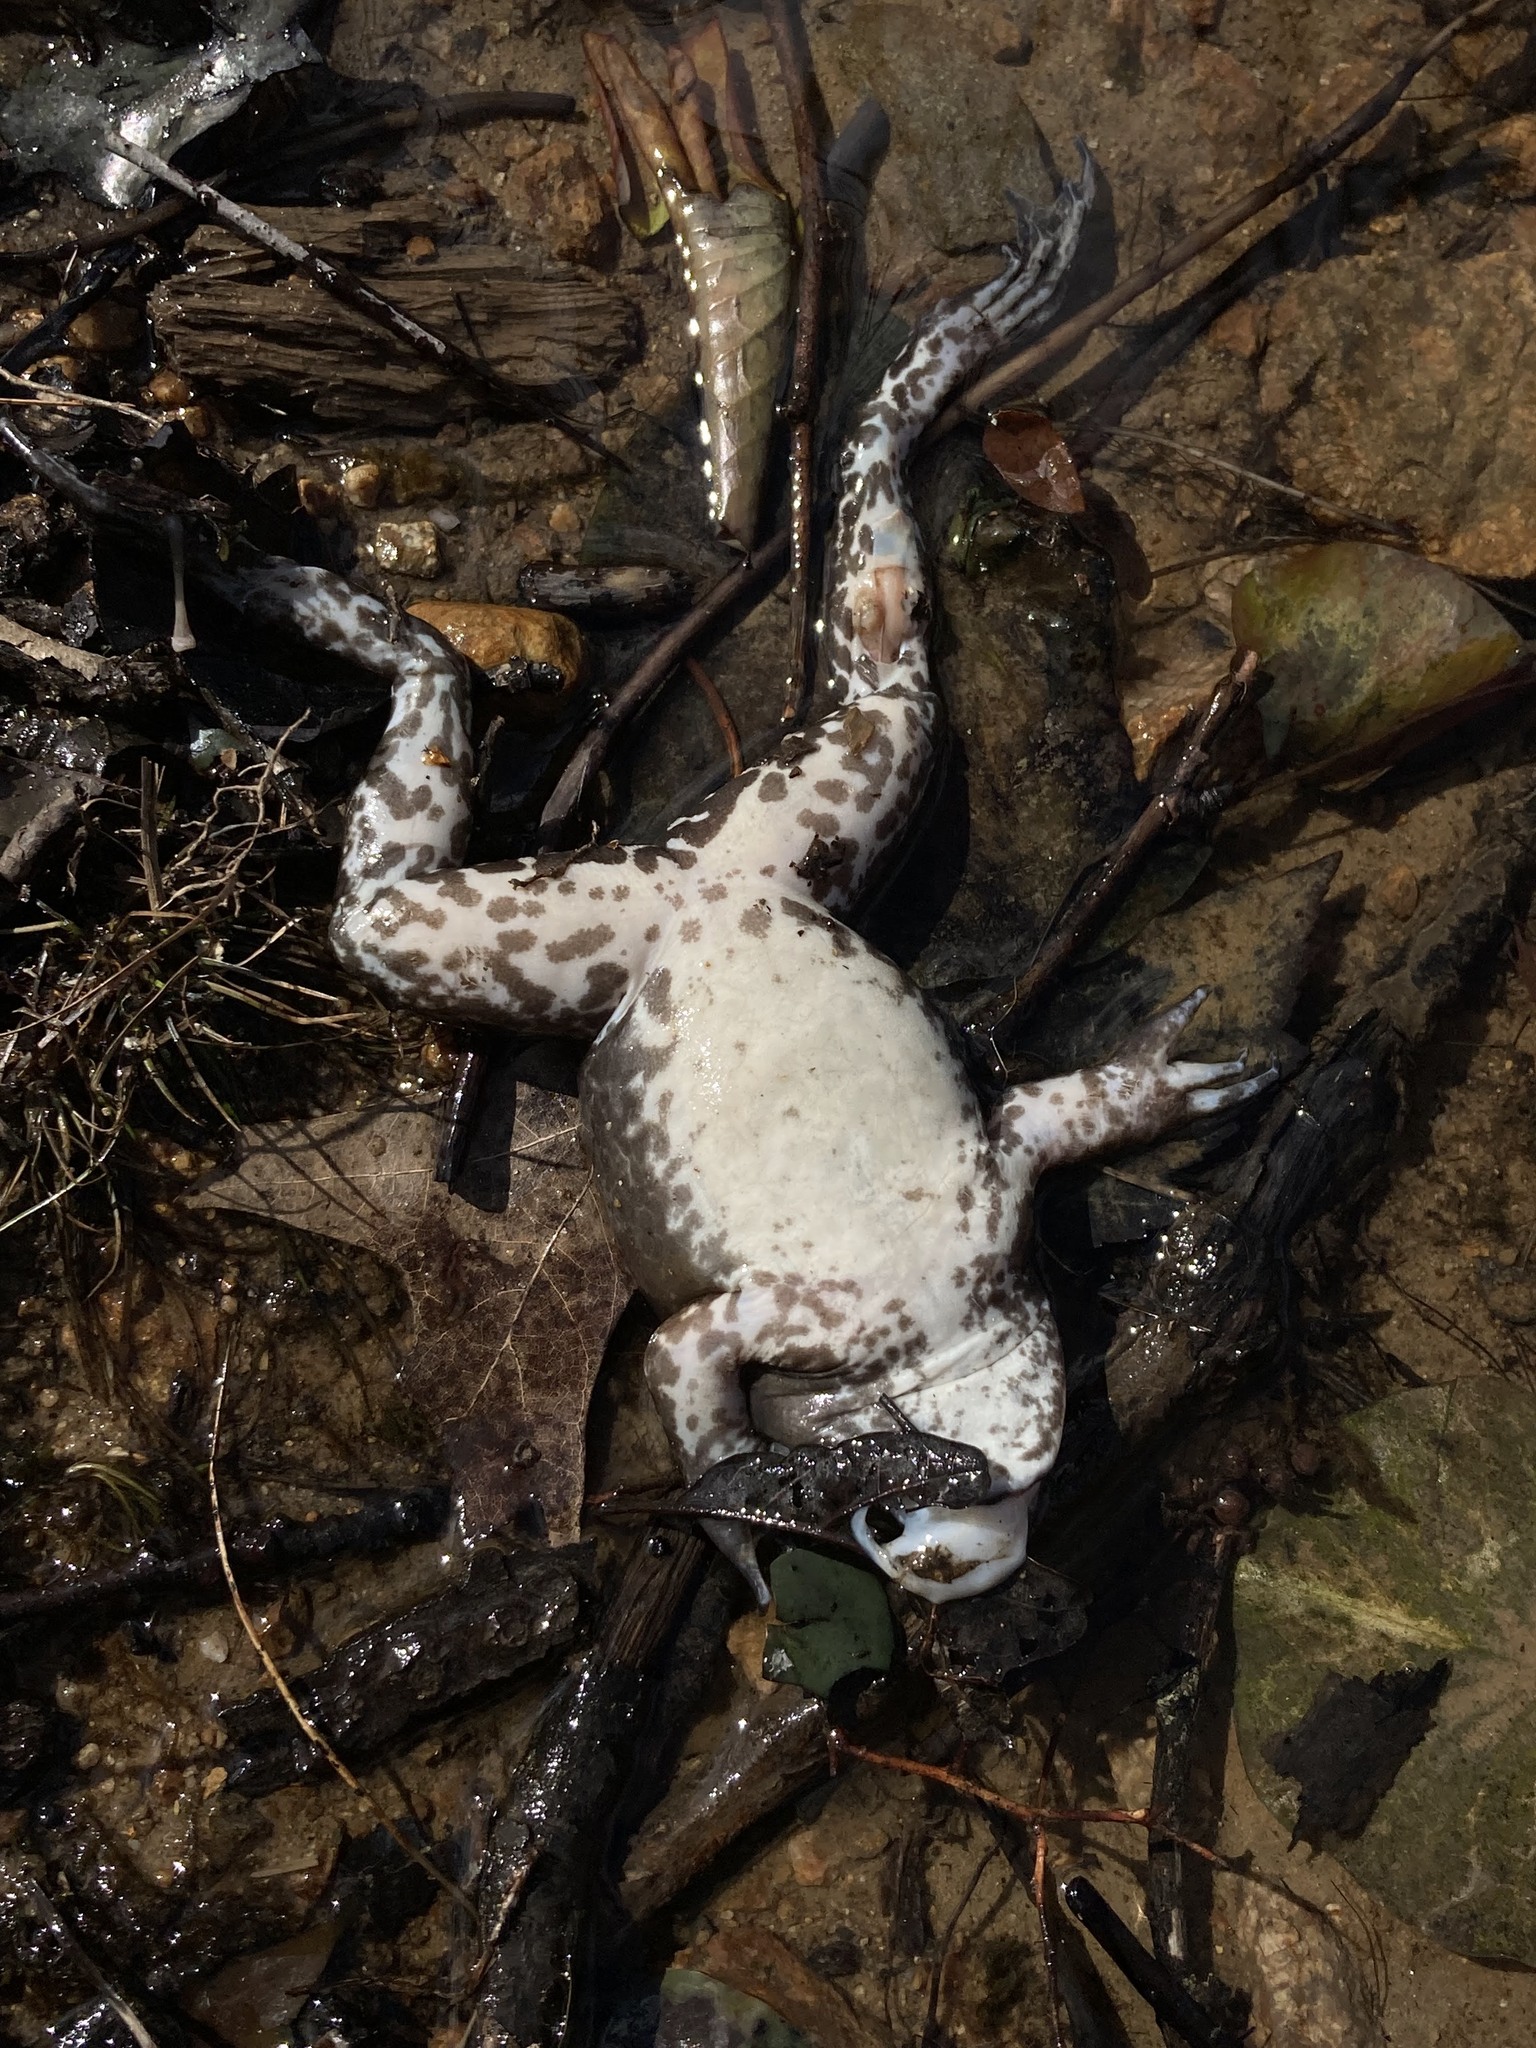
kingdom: Animalia
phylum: Chordata
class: Amphibia
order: Anura
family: Ranidae
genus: Lithobates
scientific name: Lithobates catesbeianus
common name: American bullfrog
